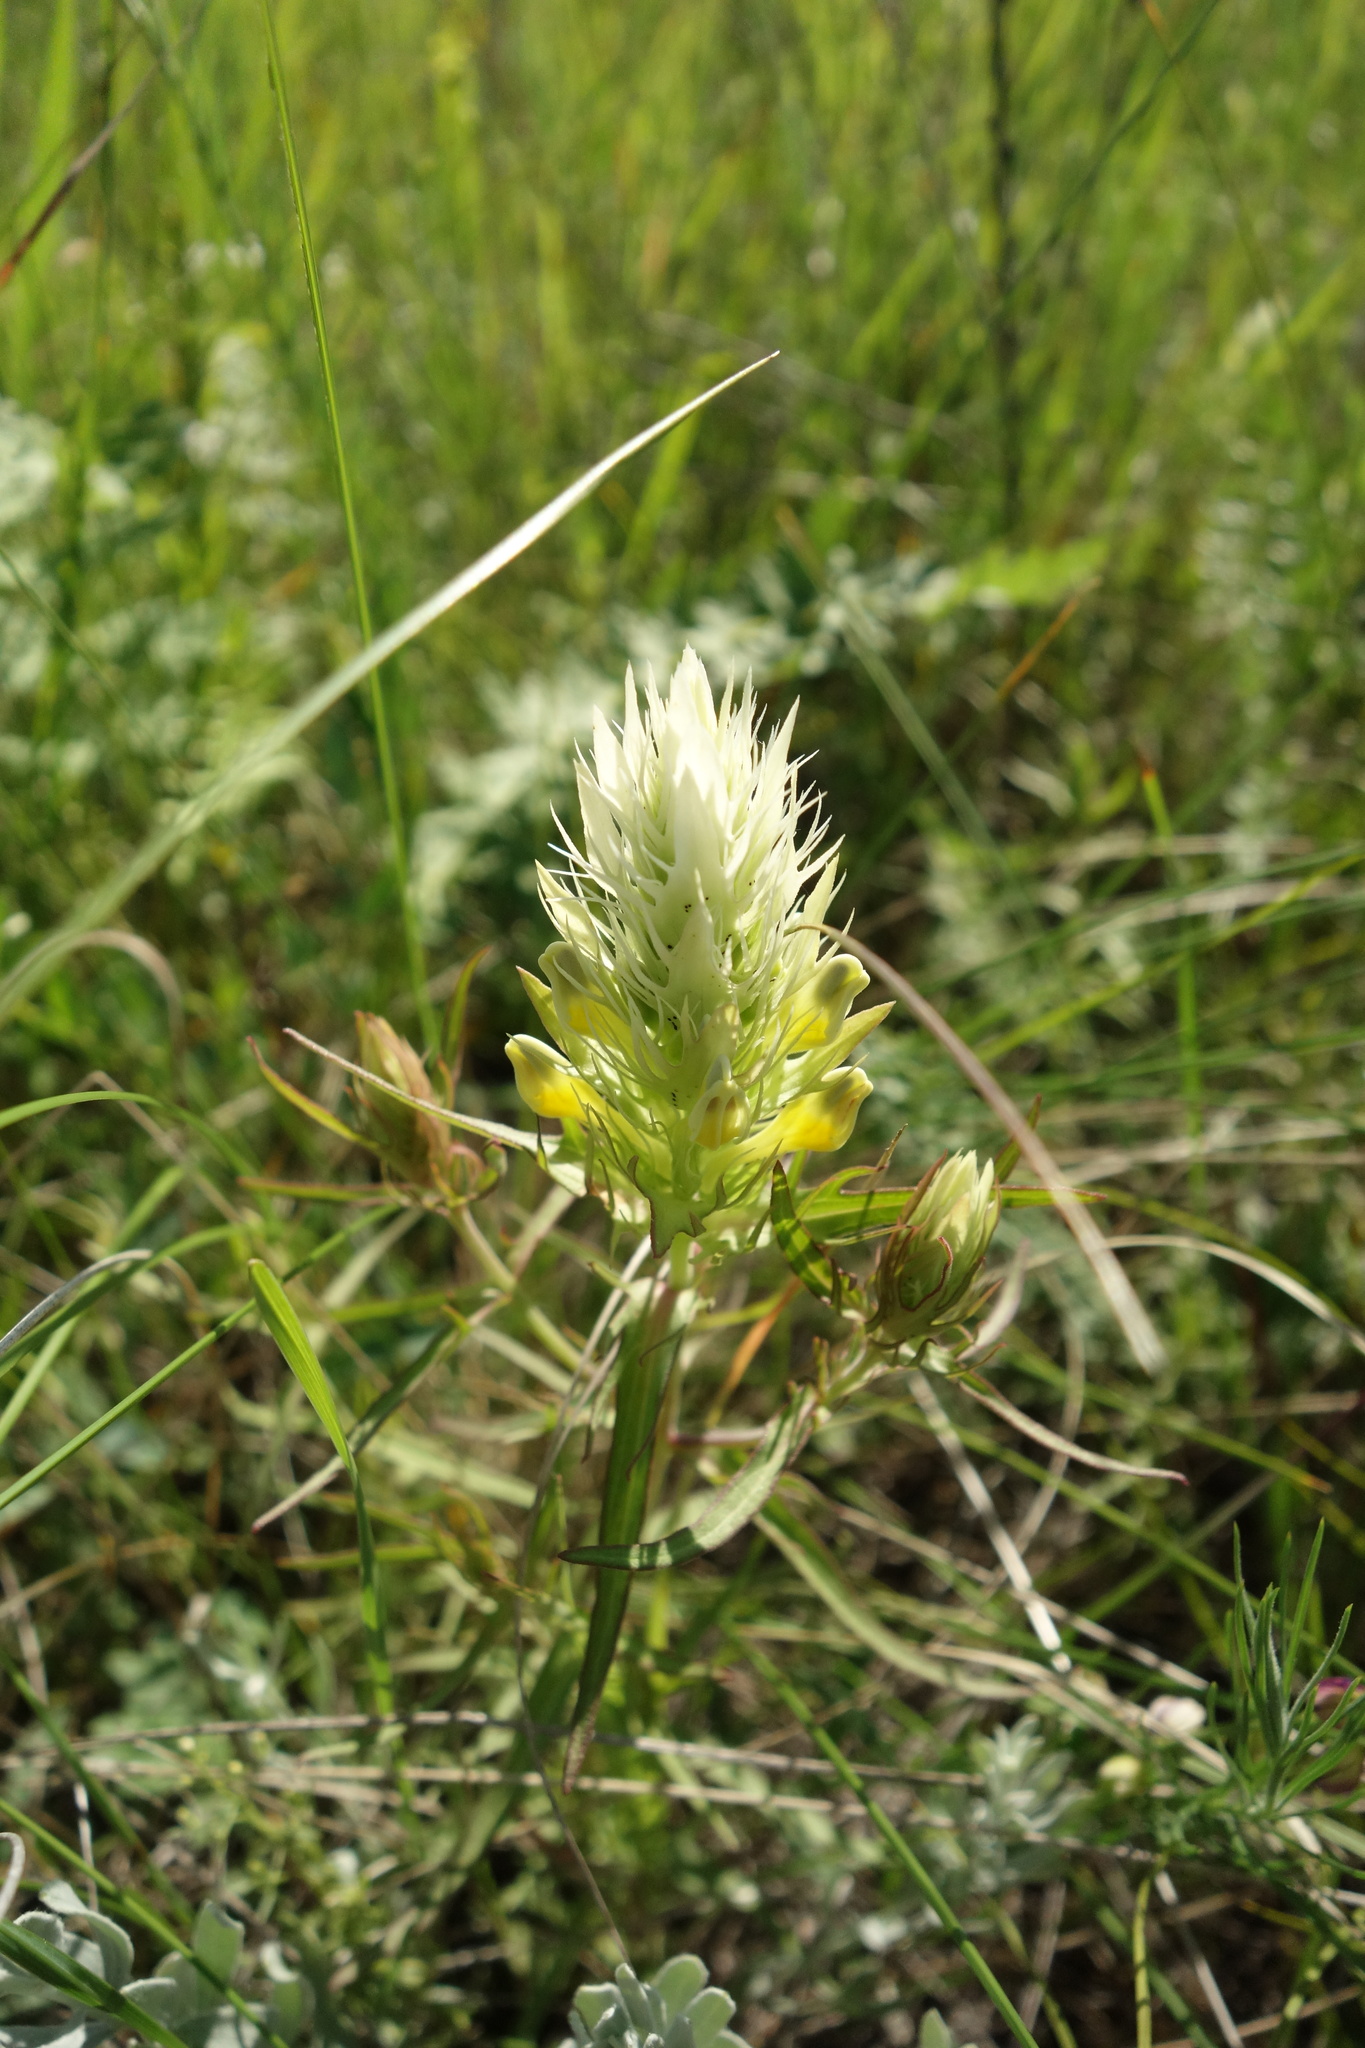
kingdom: Plantae
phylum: Tracheophyta
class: Magnoliopsida
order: Lamiales
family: Orobanchaceae
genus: Melampyrum
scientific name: Melampyrum arvense
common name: Field cow-wheat
